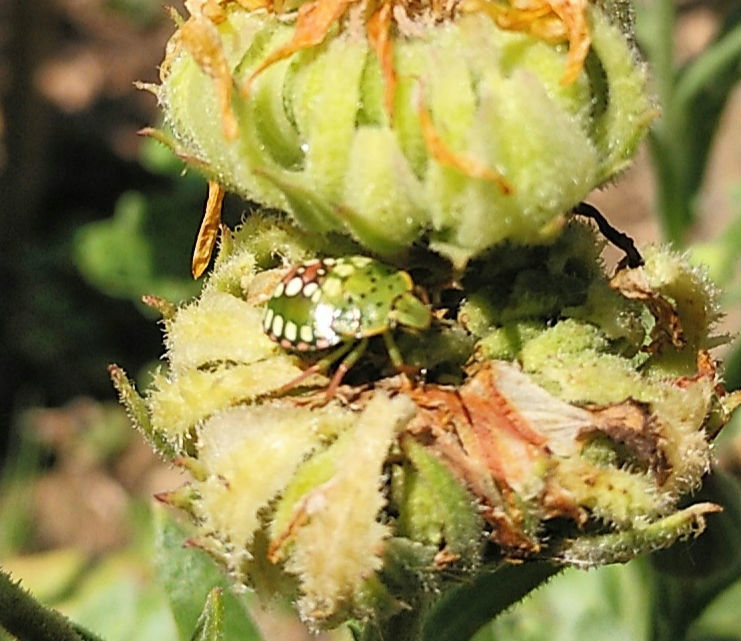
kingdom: Animalia
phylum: Arthropoda
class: Insecta
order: Hemiptera
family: Pentatomidae
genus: Nezara
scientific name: Nezara viridula
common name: Southern green stink bug
